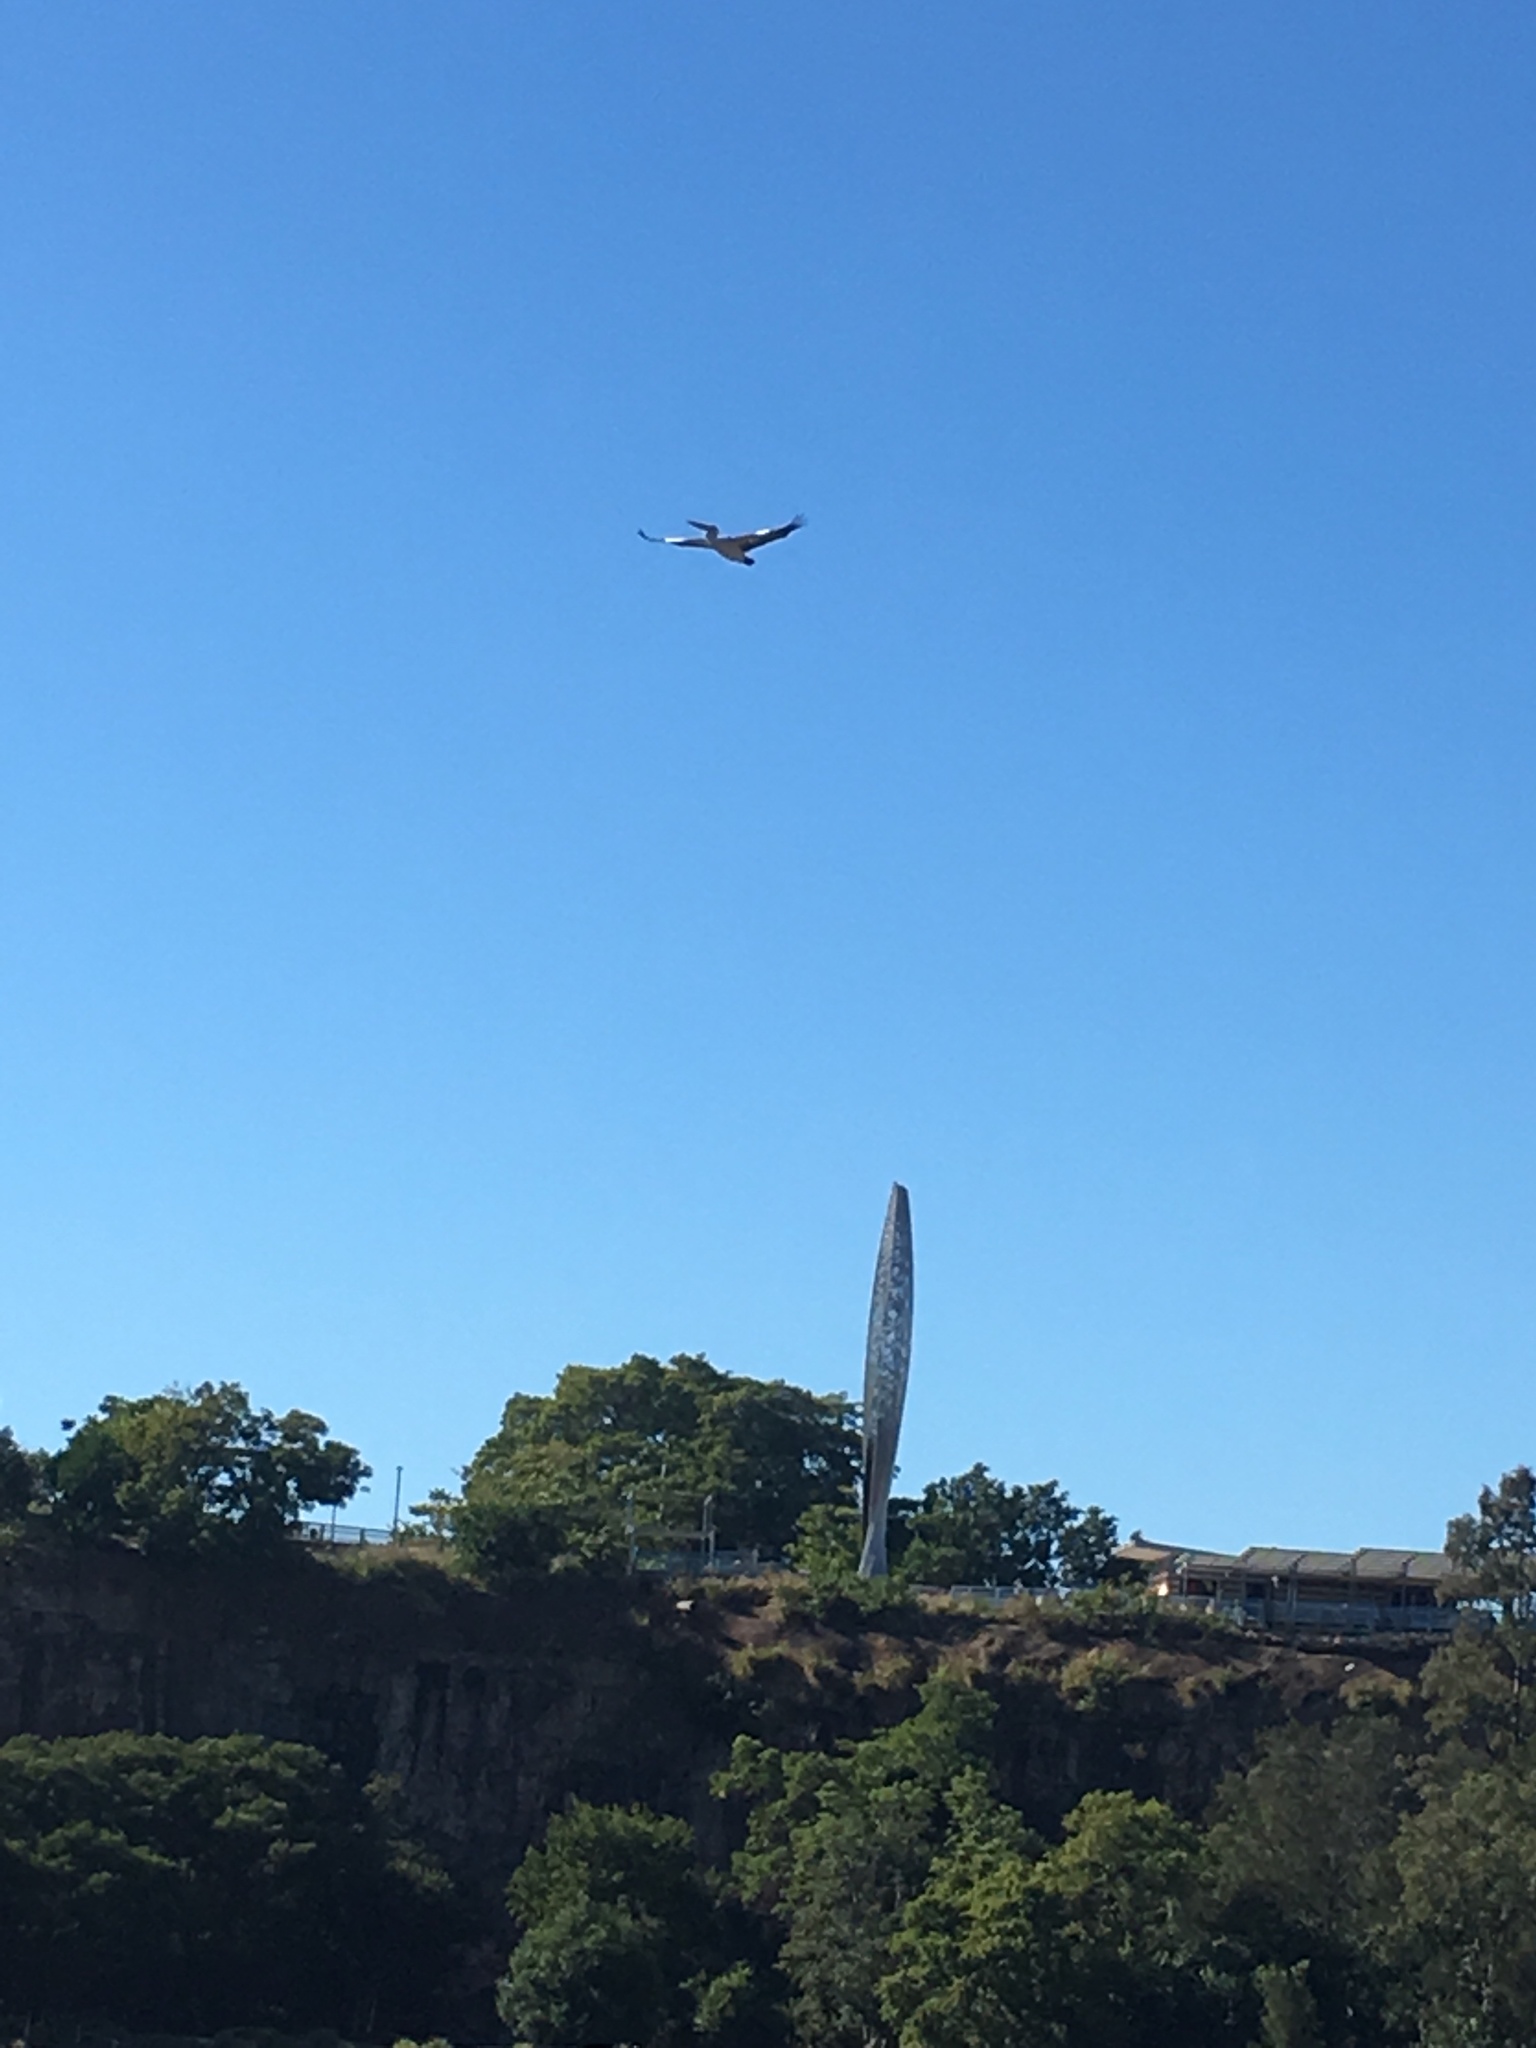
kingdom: Animalia
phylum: Chordata
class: Aves
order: Pelecaniformes
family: Pelecanidae
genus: Pelecanus
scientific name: Pelecanus conspicillatus
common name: Australian pelican
